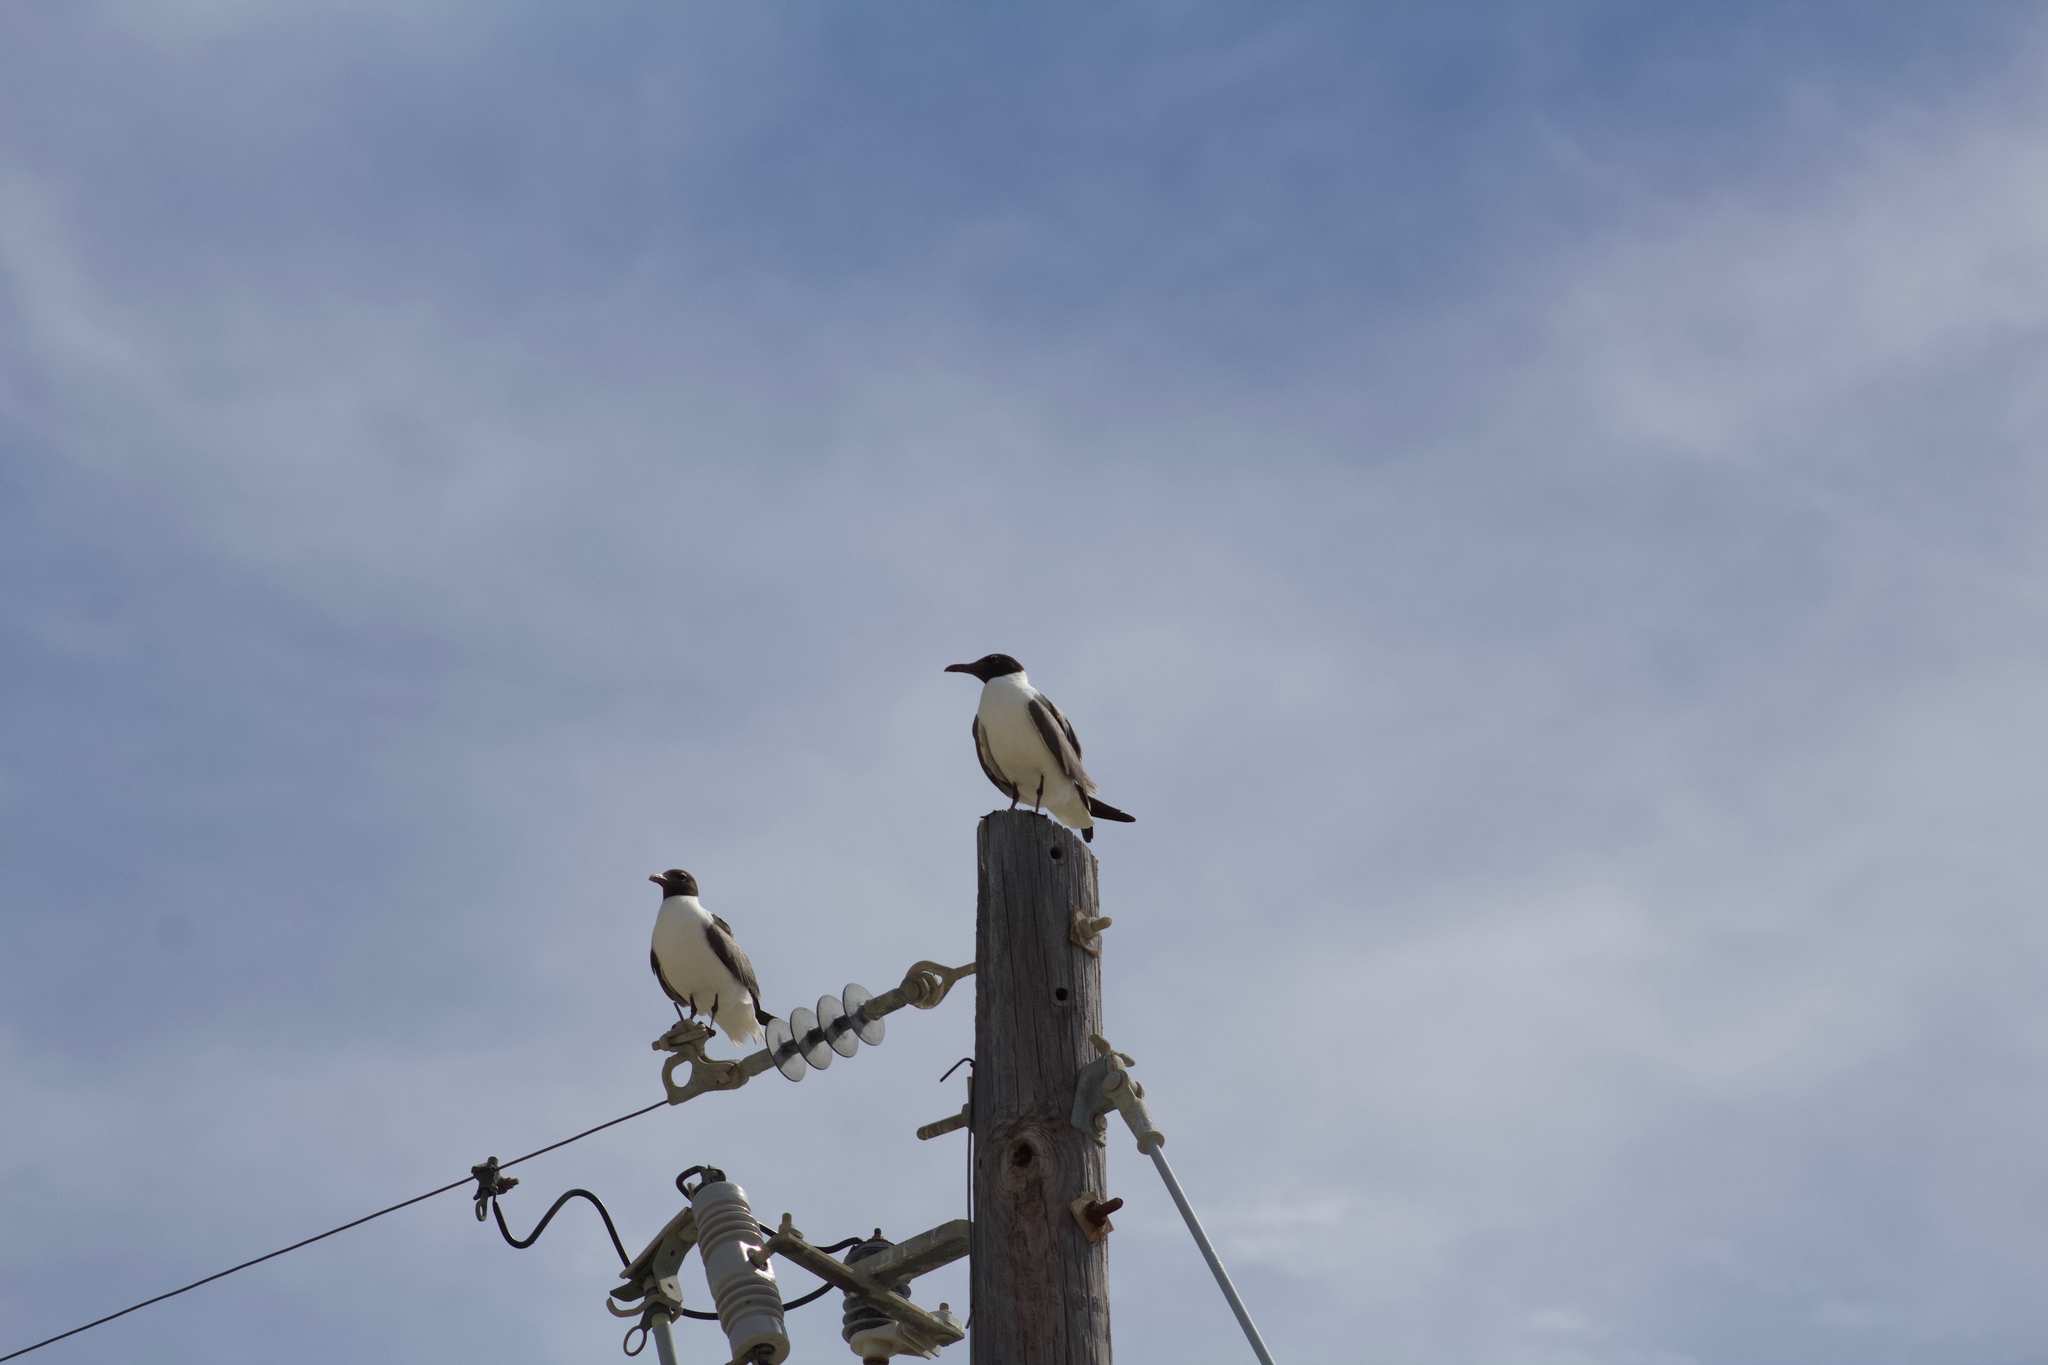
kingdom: Animalia
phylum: Chordata
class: Aves
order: Charadriiformes
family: Laridae
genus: Leucophaeus
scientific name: Leucophaeus atricilla
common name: Laughing gull
